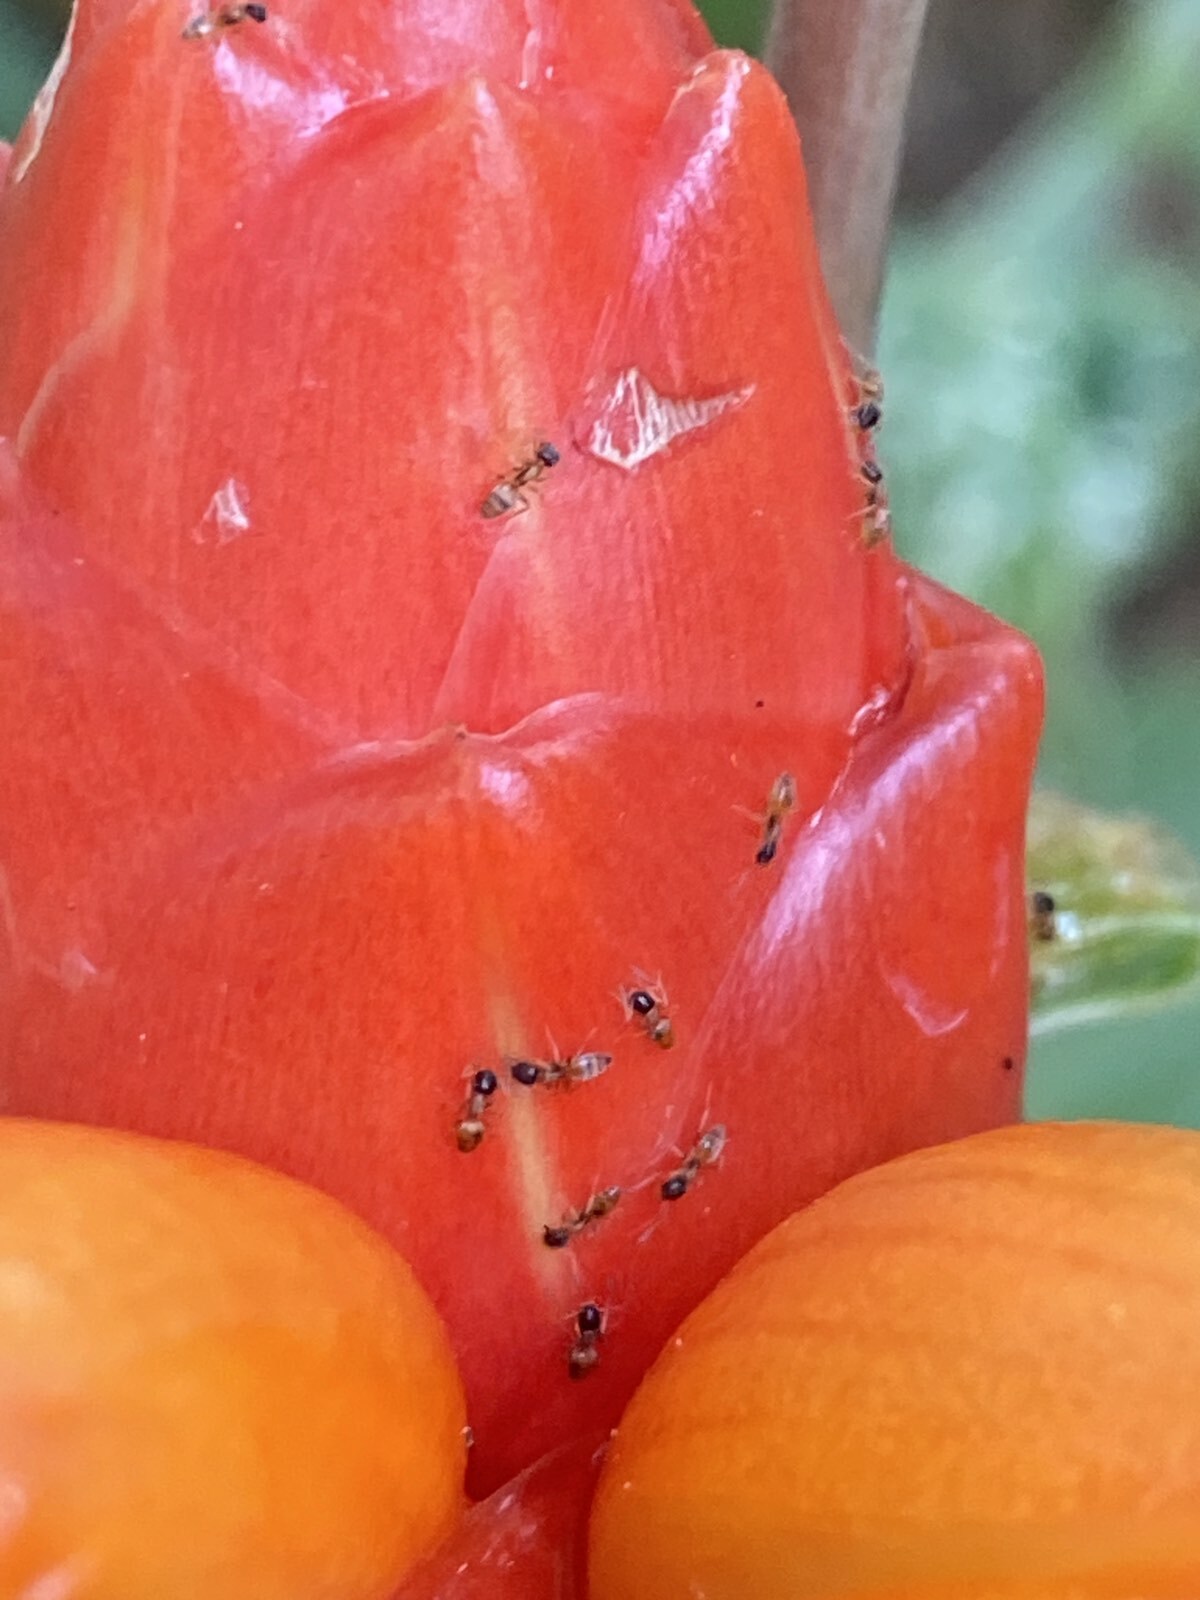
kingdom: Animalia
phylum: Arthropoda
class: Insecta
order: Hymenoptera
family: Formicidae
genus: Tapinoma
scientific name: Tapinoma melanocephalum
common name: Ghost ant
